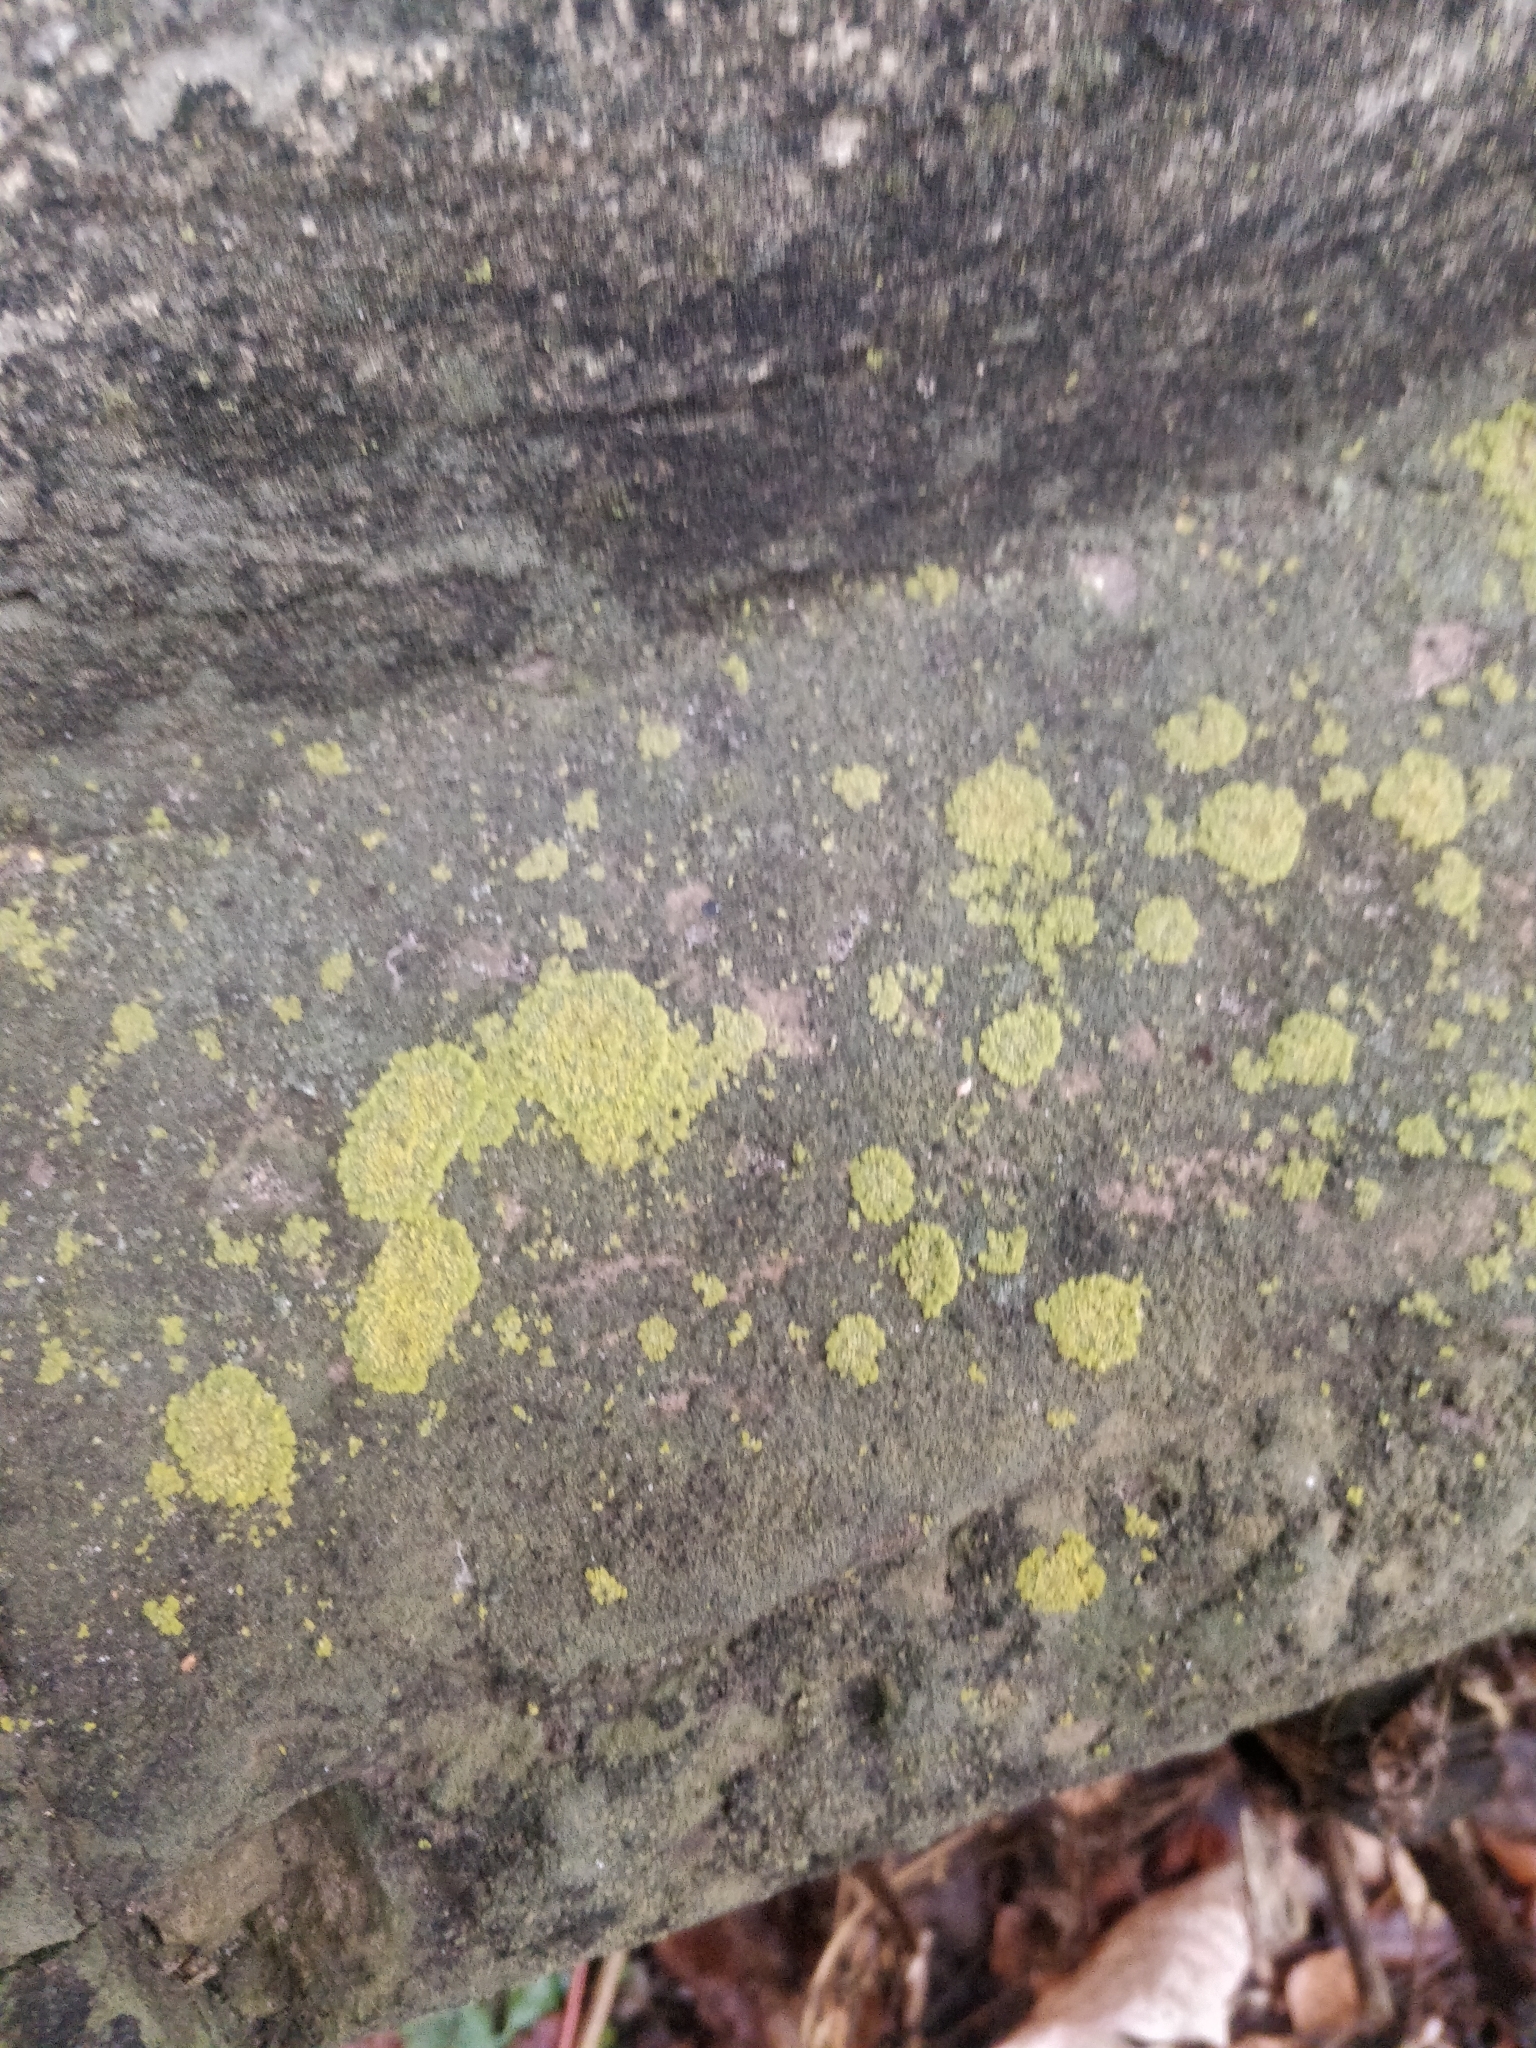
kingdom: Fungi
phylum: Ascomycota
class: Lecanoromycetes
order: Teloschistales
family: Teloschistaceae
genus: Xanthoria
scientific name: Xanthoria parietina
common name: Common orange lichen
